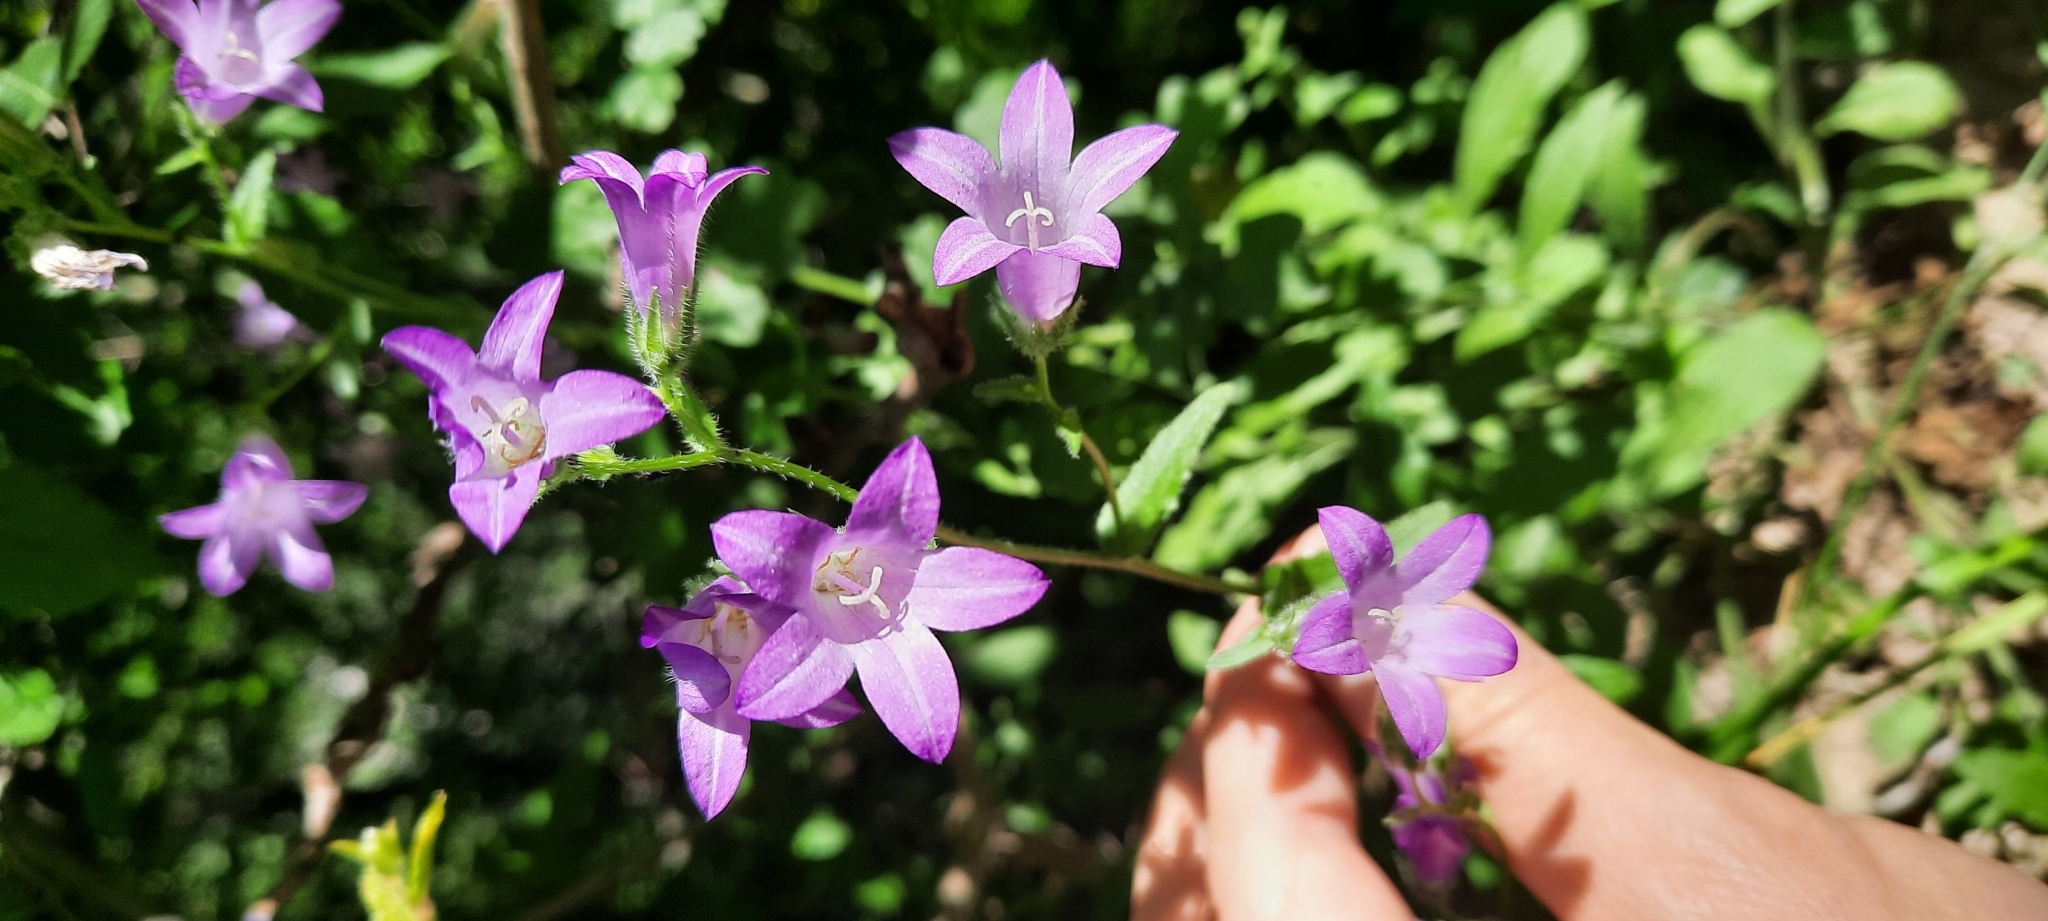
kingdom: Plantae
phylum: Tracheophyta
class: Magnoliopsida
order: Asterales
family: Campanulaceae
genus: Campanula
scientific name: Campanula sibirica
